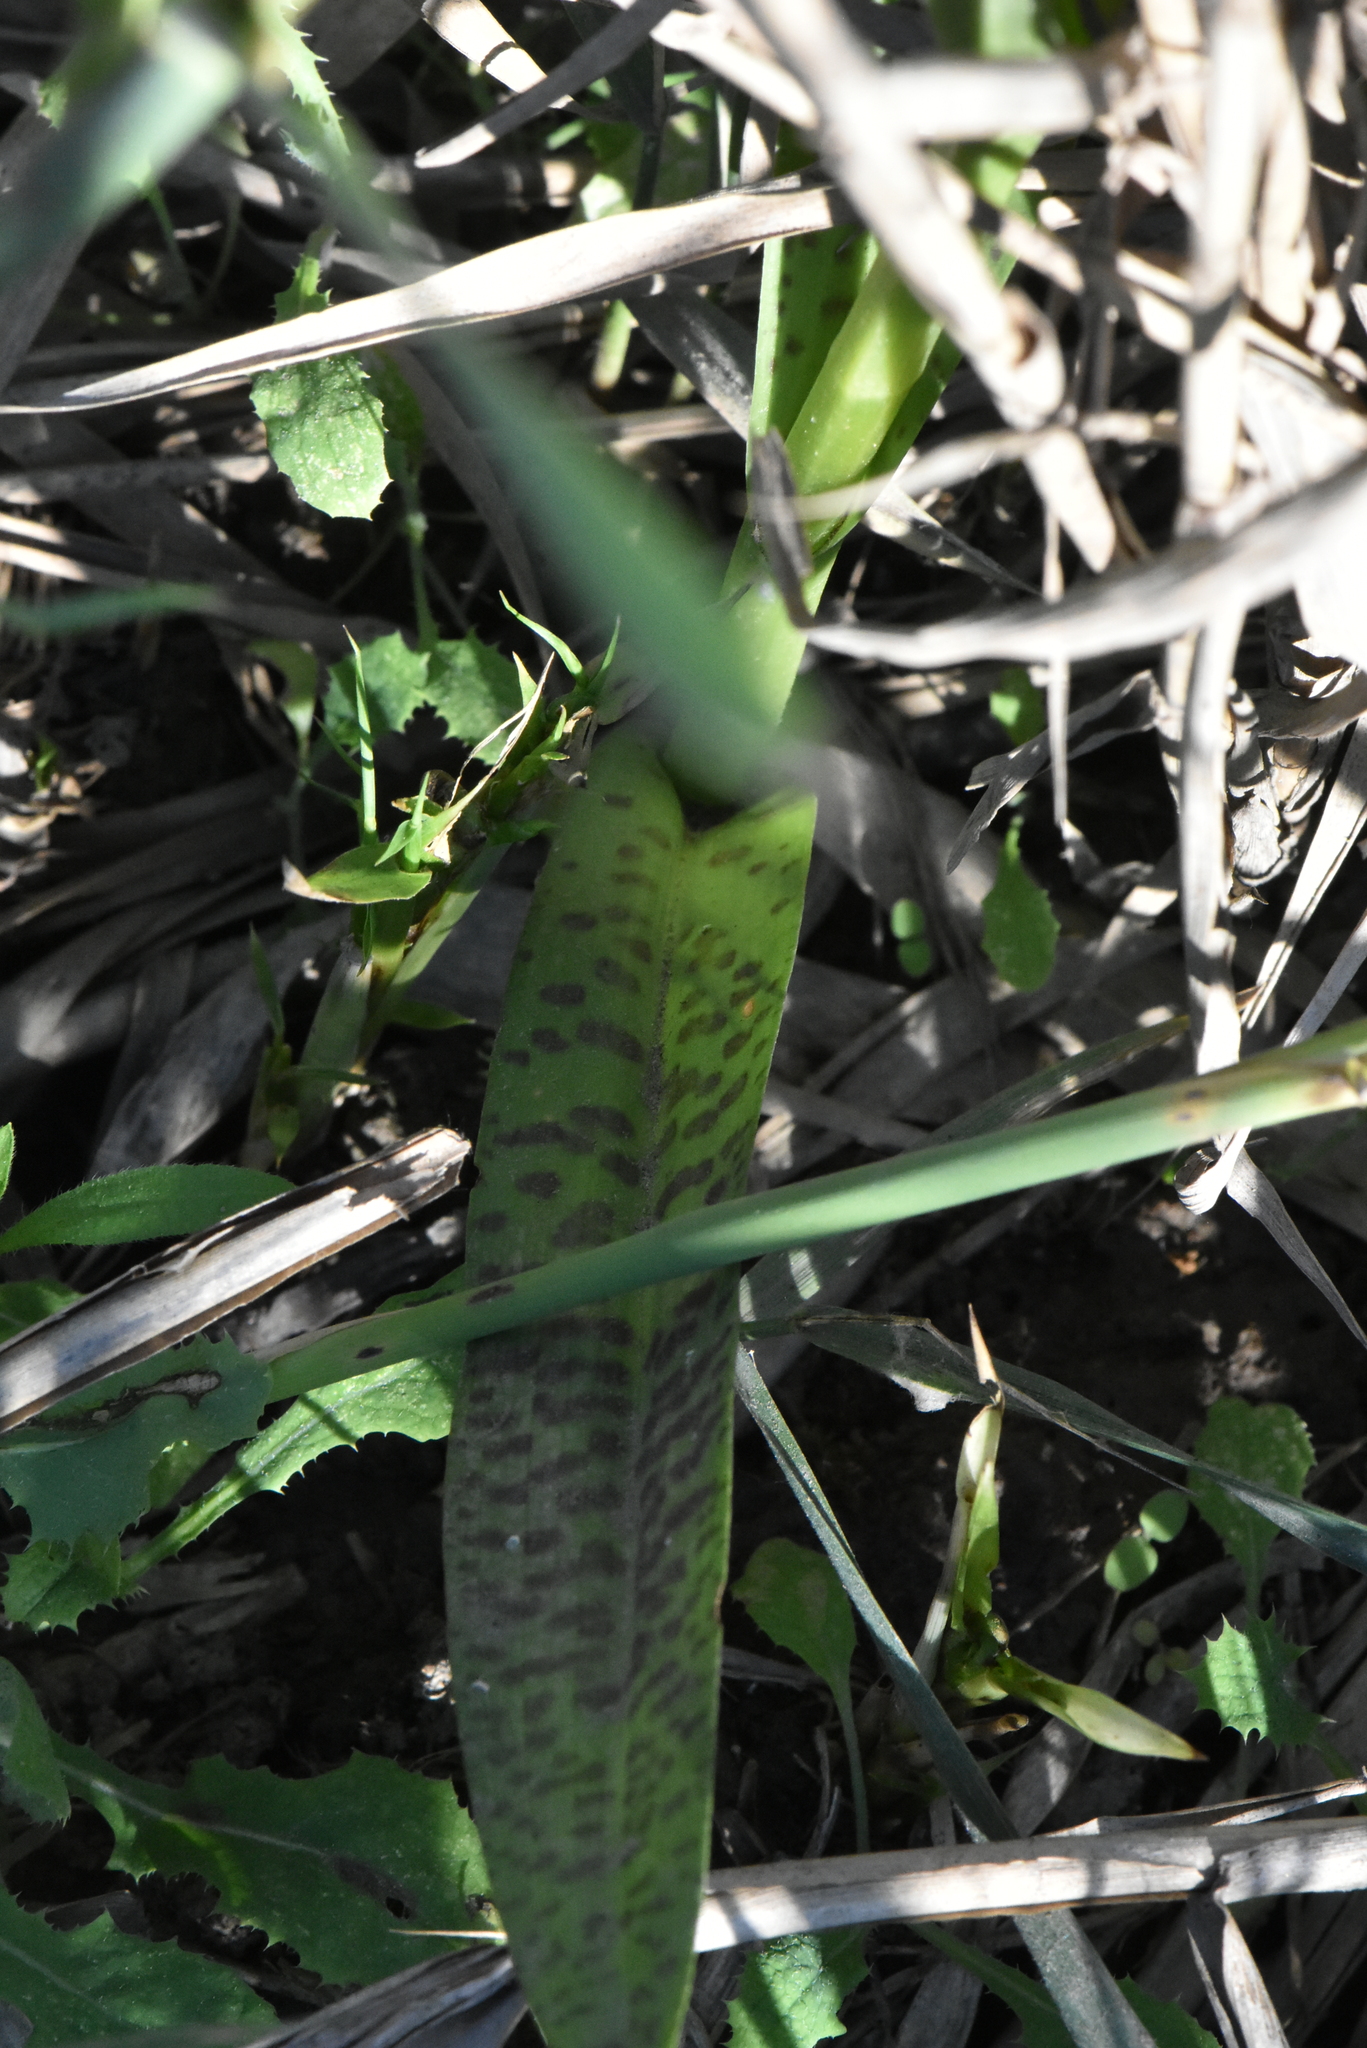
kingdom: Plantae
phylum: Tracheophyta
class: Liliopsida
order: Asparagales
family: Orchidaceae
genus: Dactylorhiza
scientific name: Dactylorhiza majalis
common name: Marsh orchid
